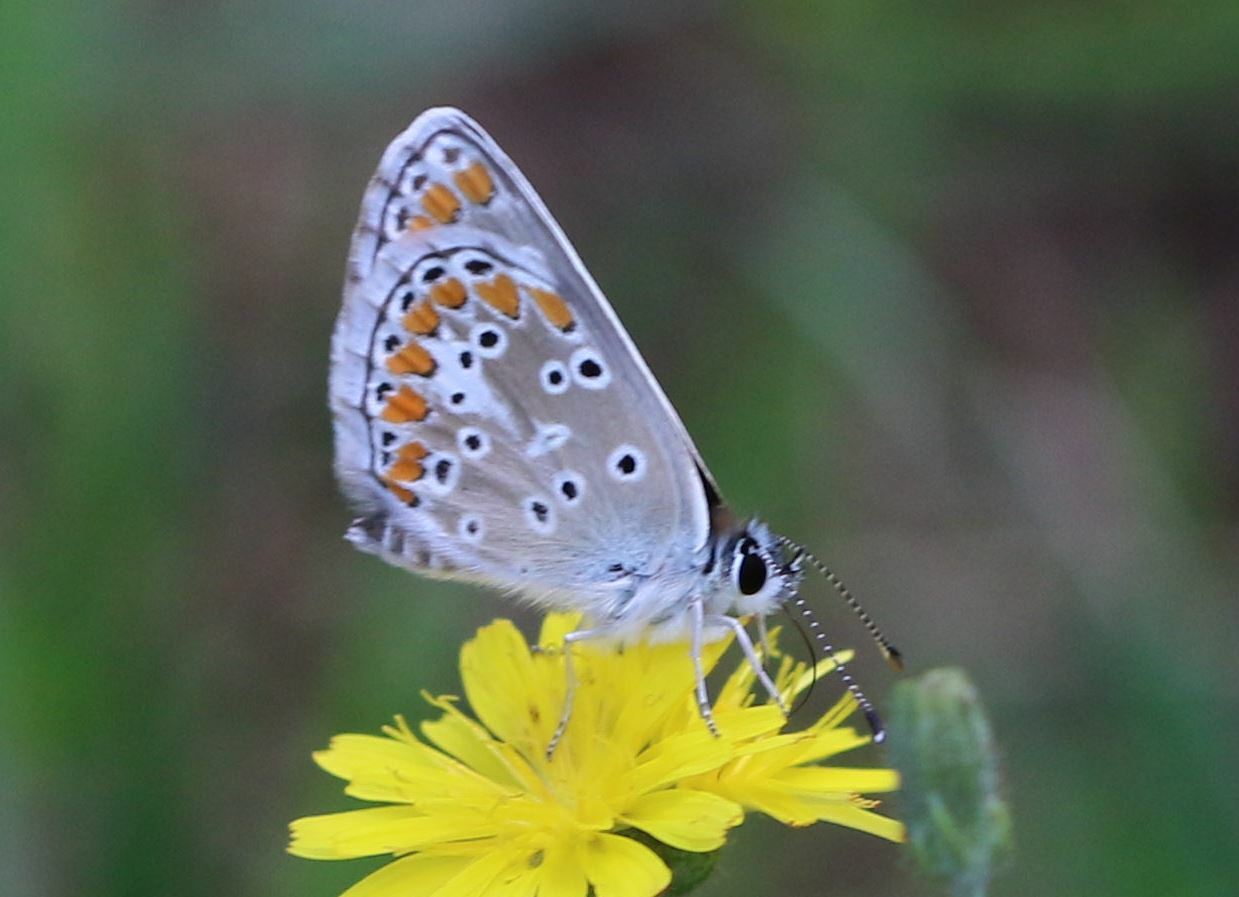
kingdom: Animalia
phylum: Arthropoda
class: Insecta
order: Lepidoptera
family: Lycaenidae
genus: Aricia
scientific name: Aricia agestis
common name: Brown argus
